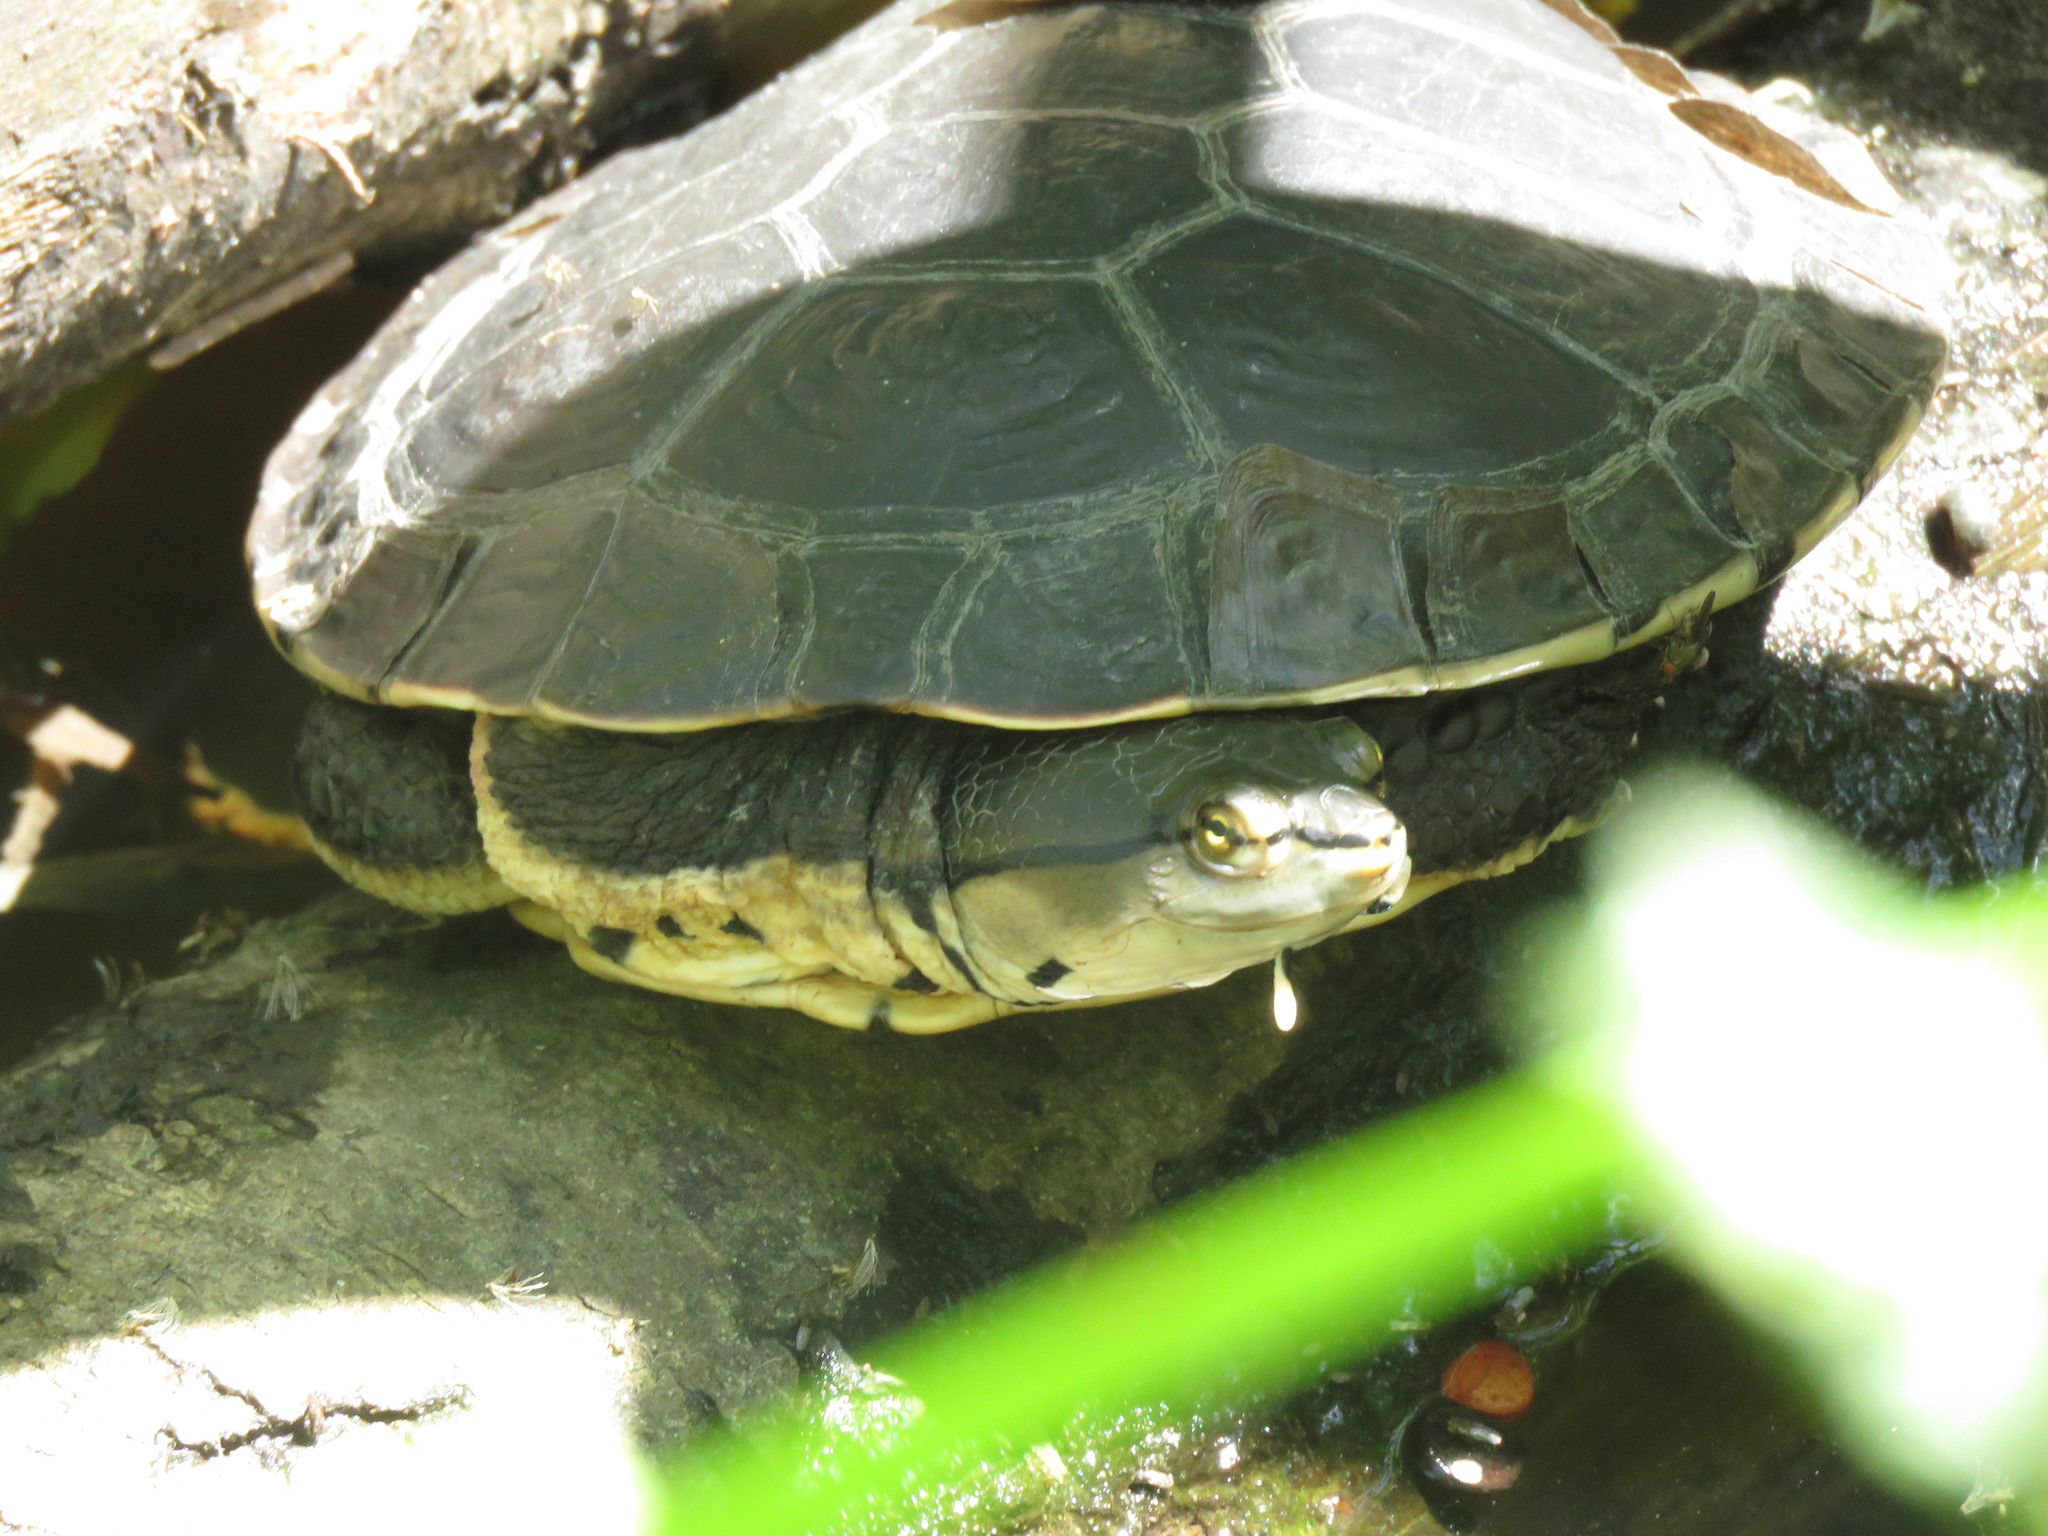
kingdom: Animalia
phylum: Chordata
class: Testudines
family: Chelidae
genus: Phrynops
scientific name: Phrynops hilarii
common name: Side-necked turtle of saint hillaire
